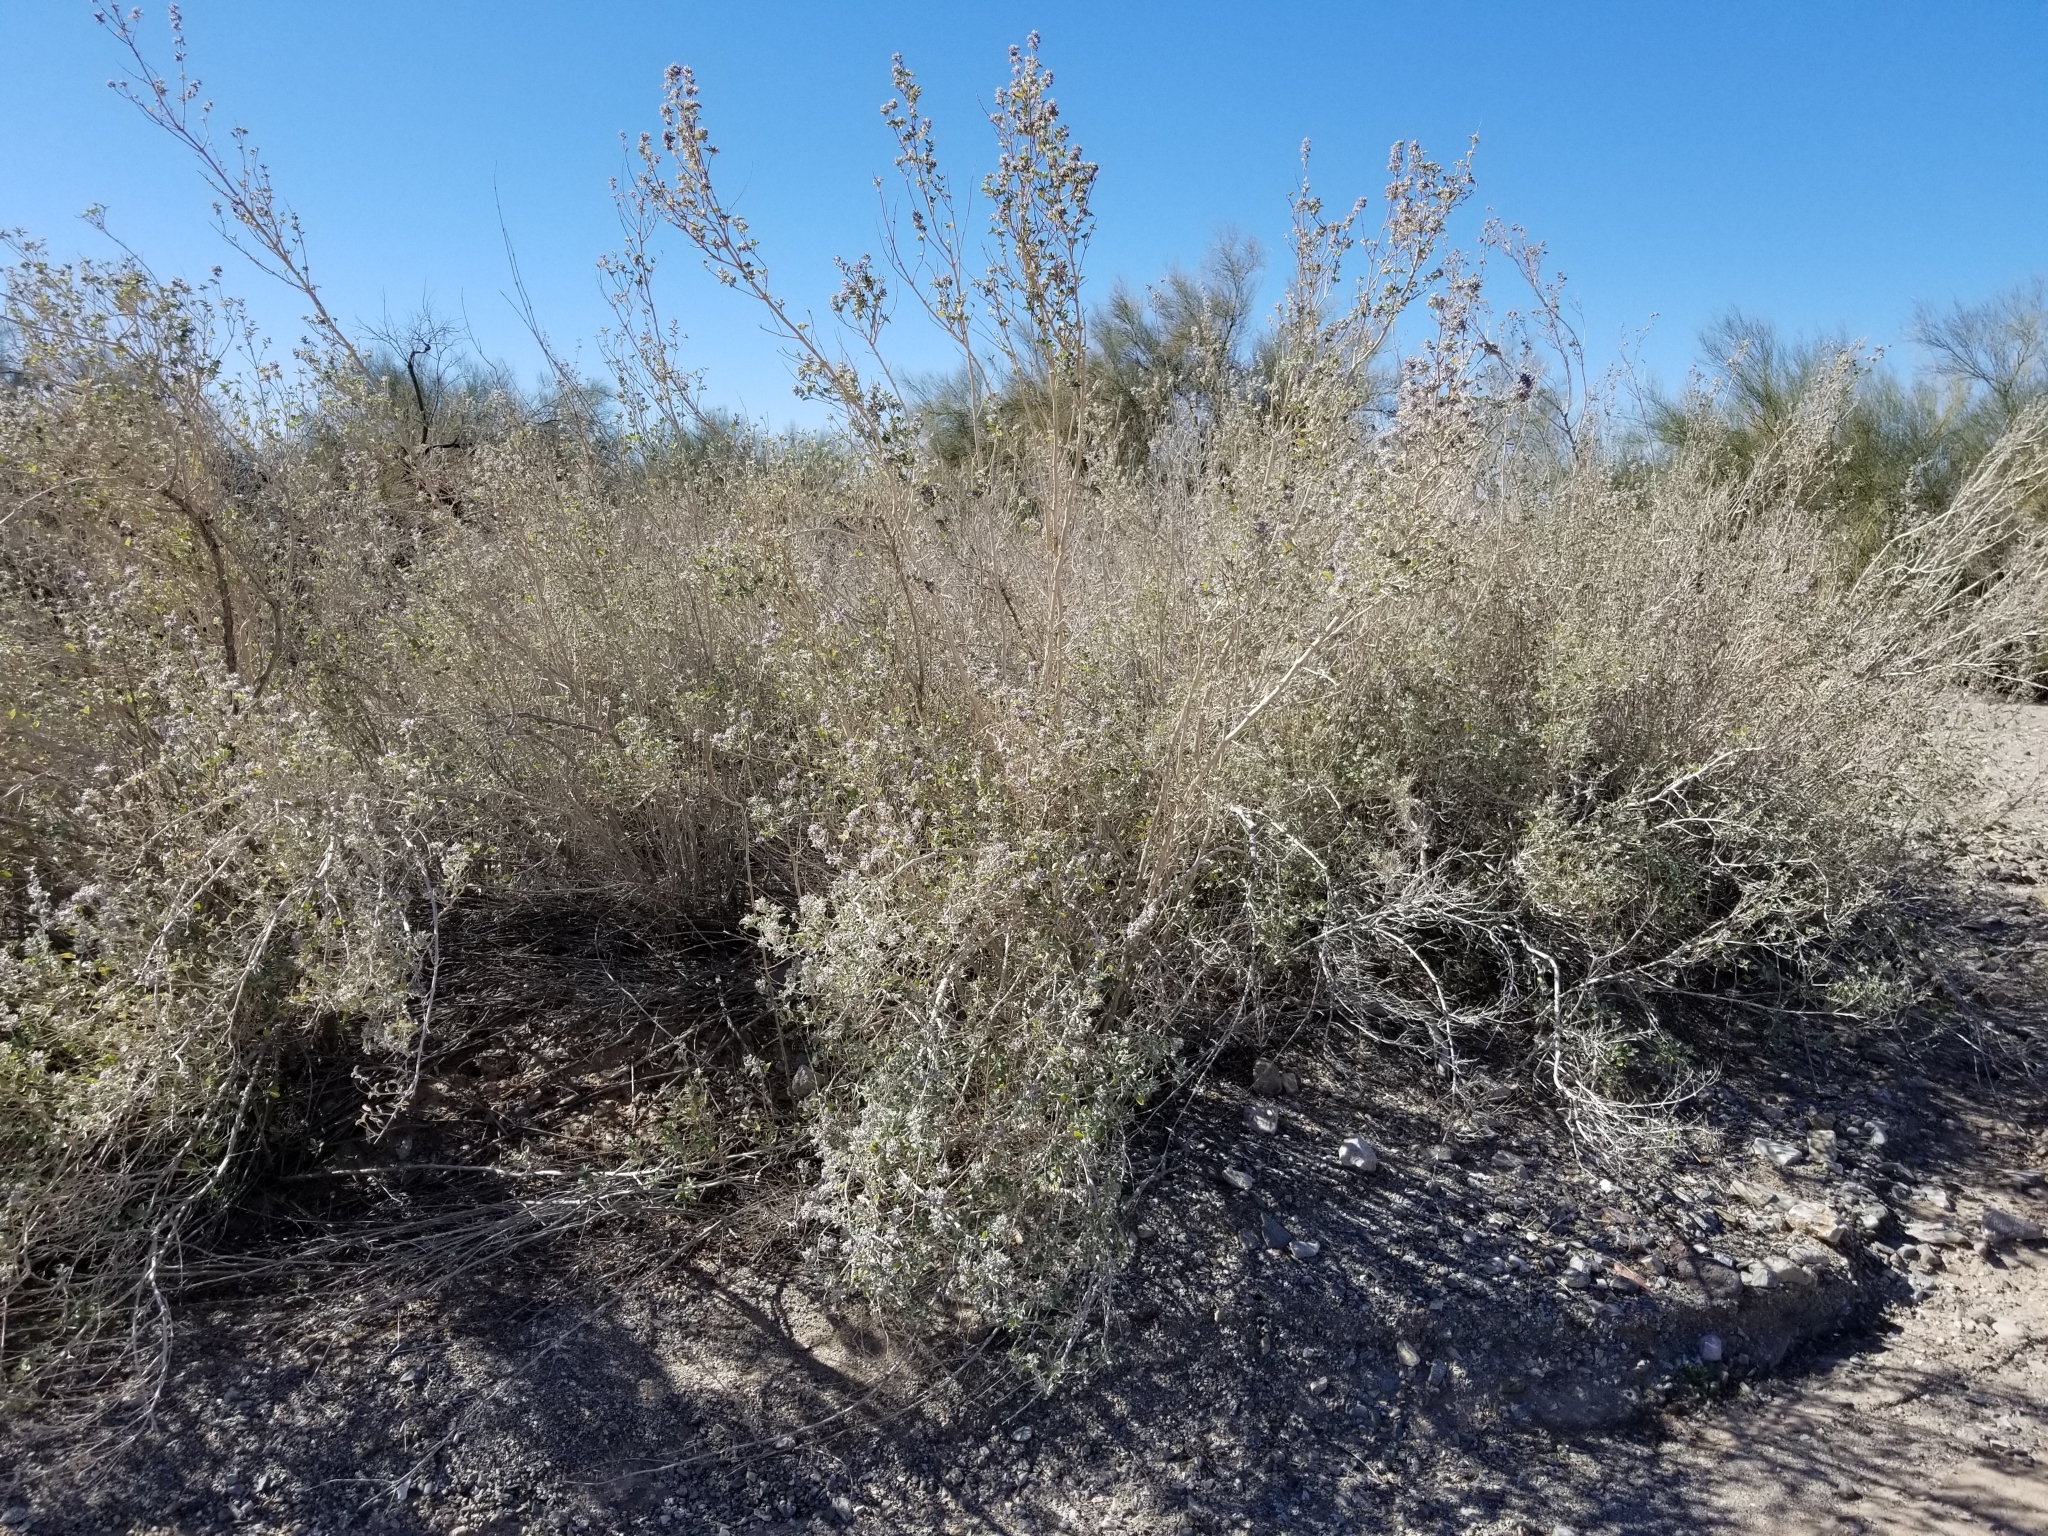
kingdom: Plantae
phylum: Tracheophyta
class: Magnoliopsida
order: Lamiales
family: Lamiaceae
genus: Condea
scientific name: Condea emoryi
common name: Chia
